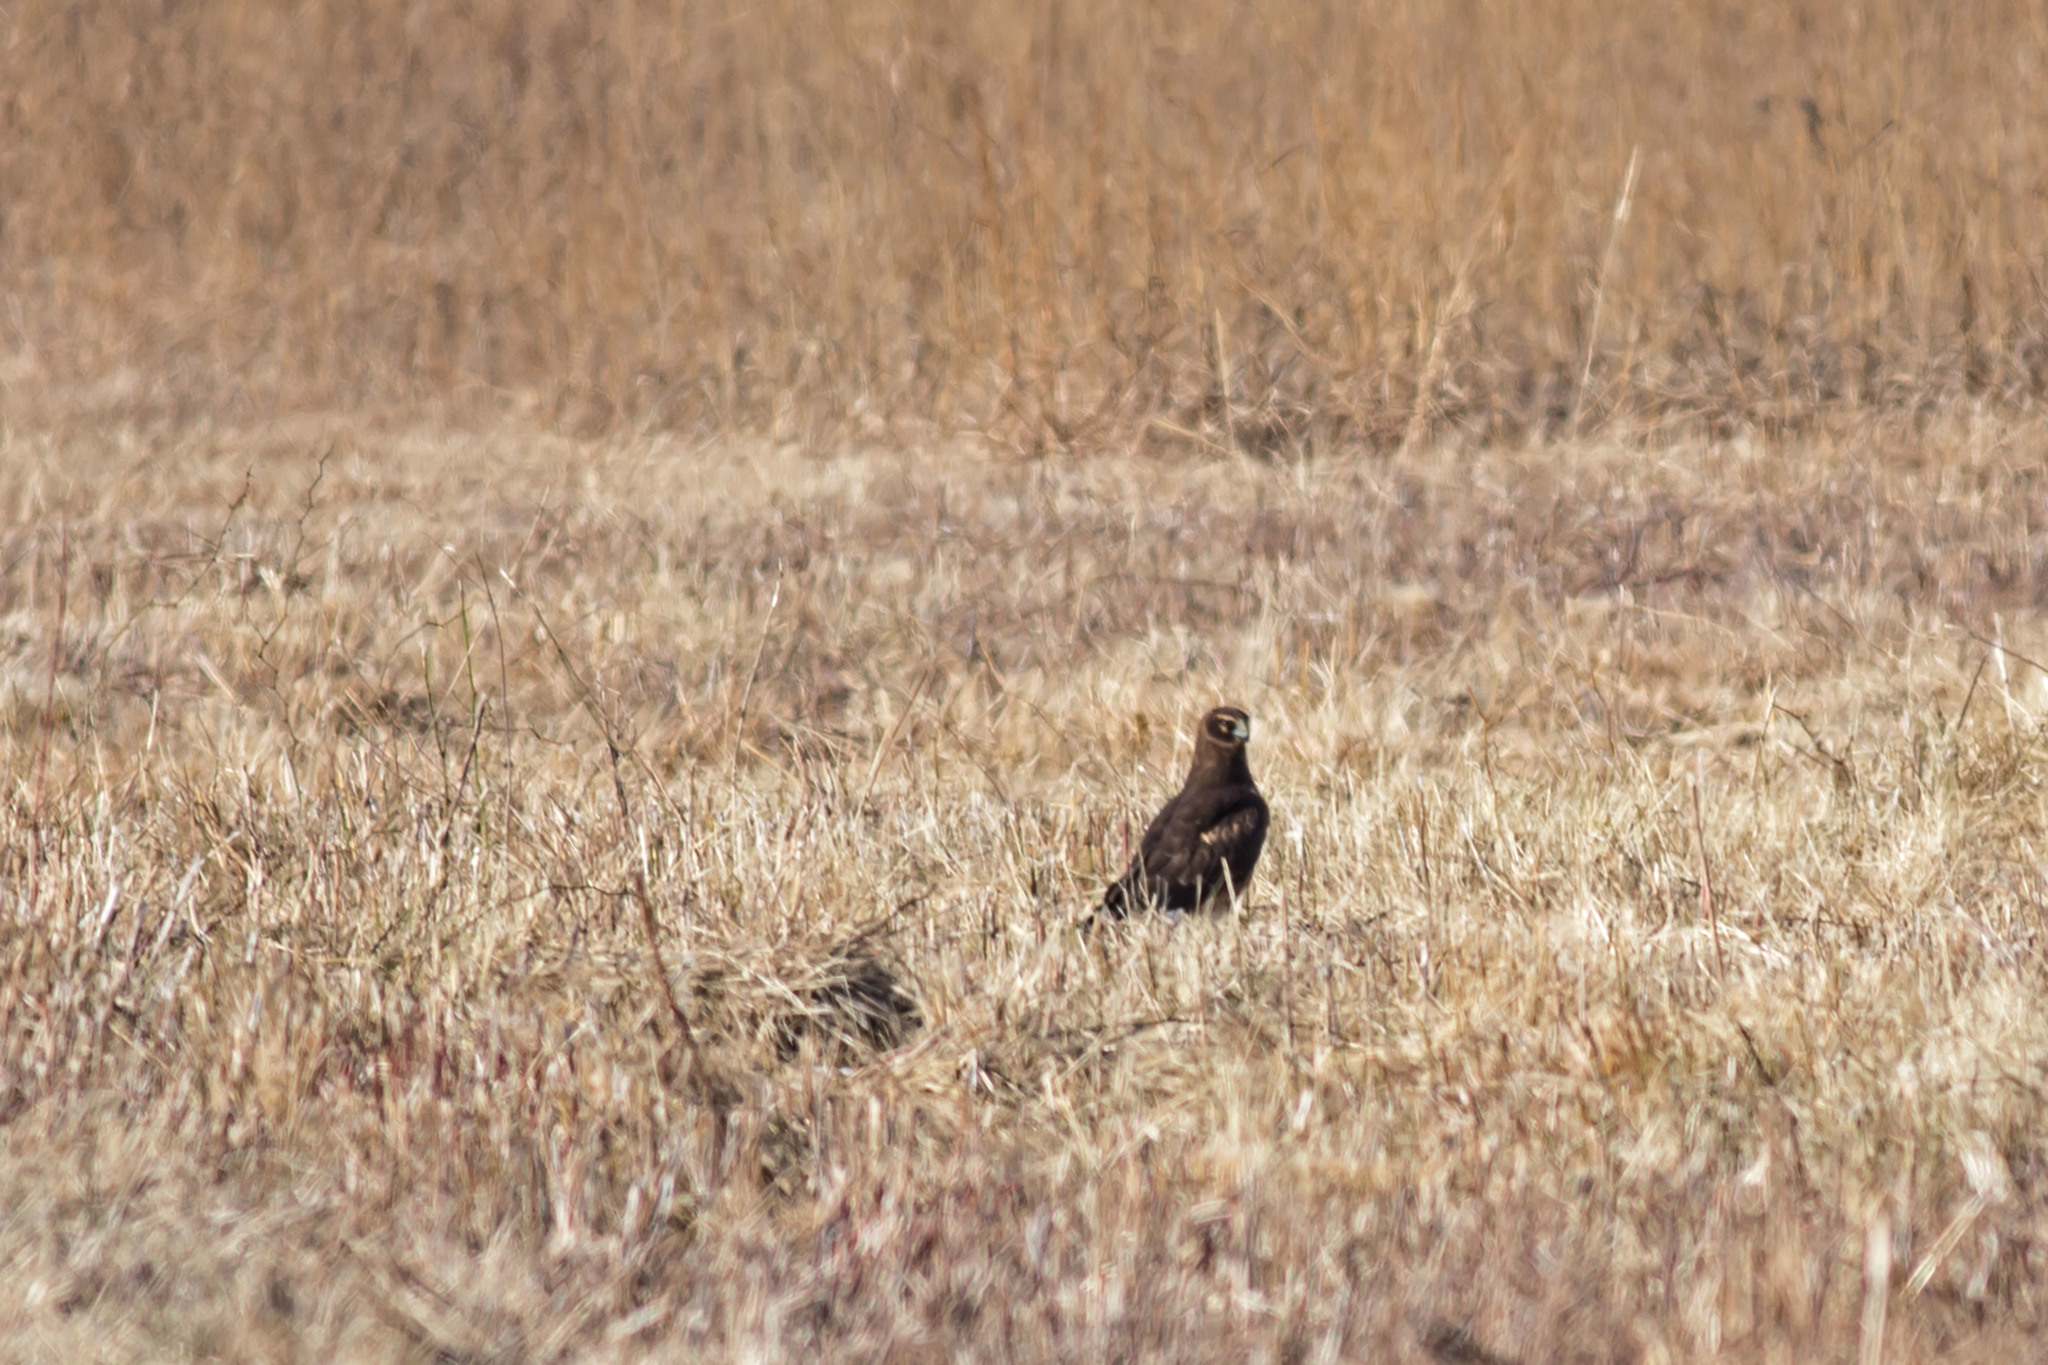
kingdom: Animalia
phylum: Chordata
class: Aves
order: Accipitriformes
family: Accipitridae
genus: Circus
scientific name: Circus cyaneus
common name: Hen harrier
